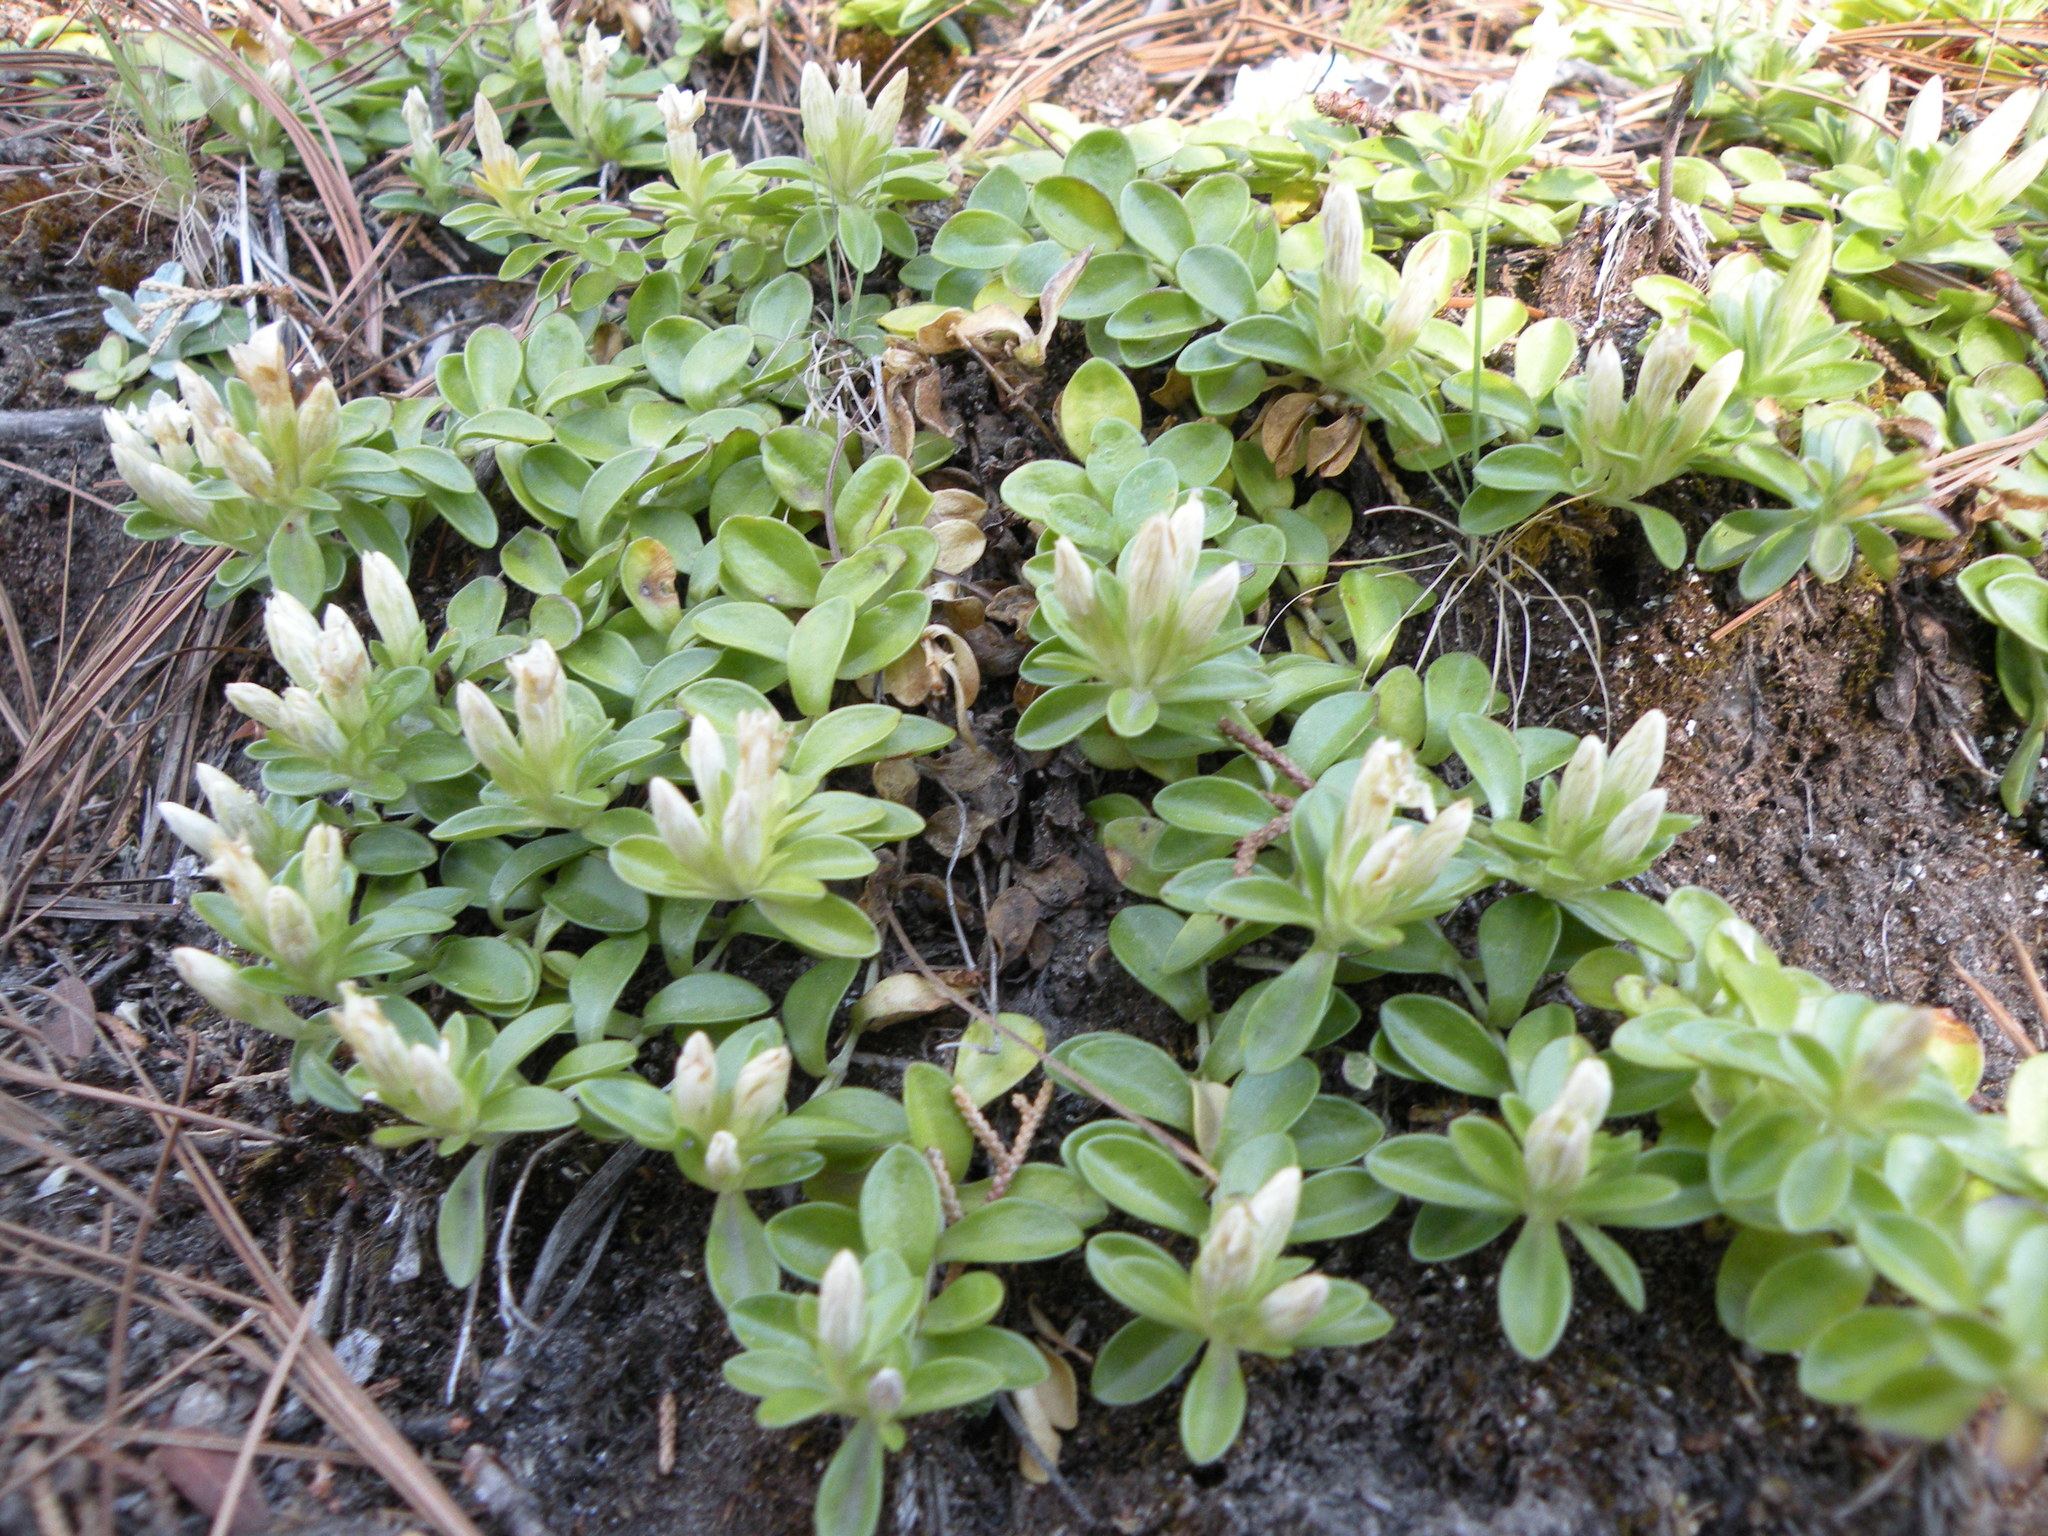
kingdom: Plantae
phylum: Tracheophyta
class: Magnoliopsida
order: Gentianales
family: Gentianaceae
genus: Gentiana
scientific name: Gentiana ovatiloba
